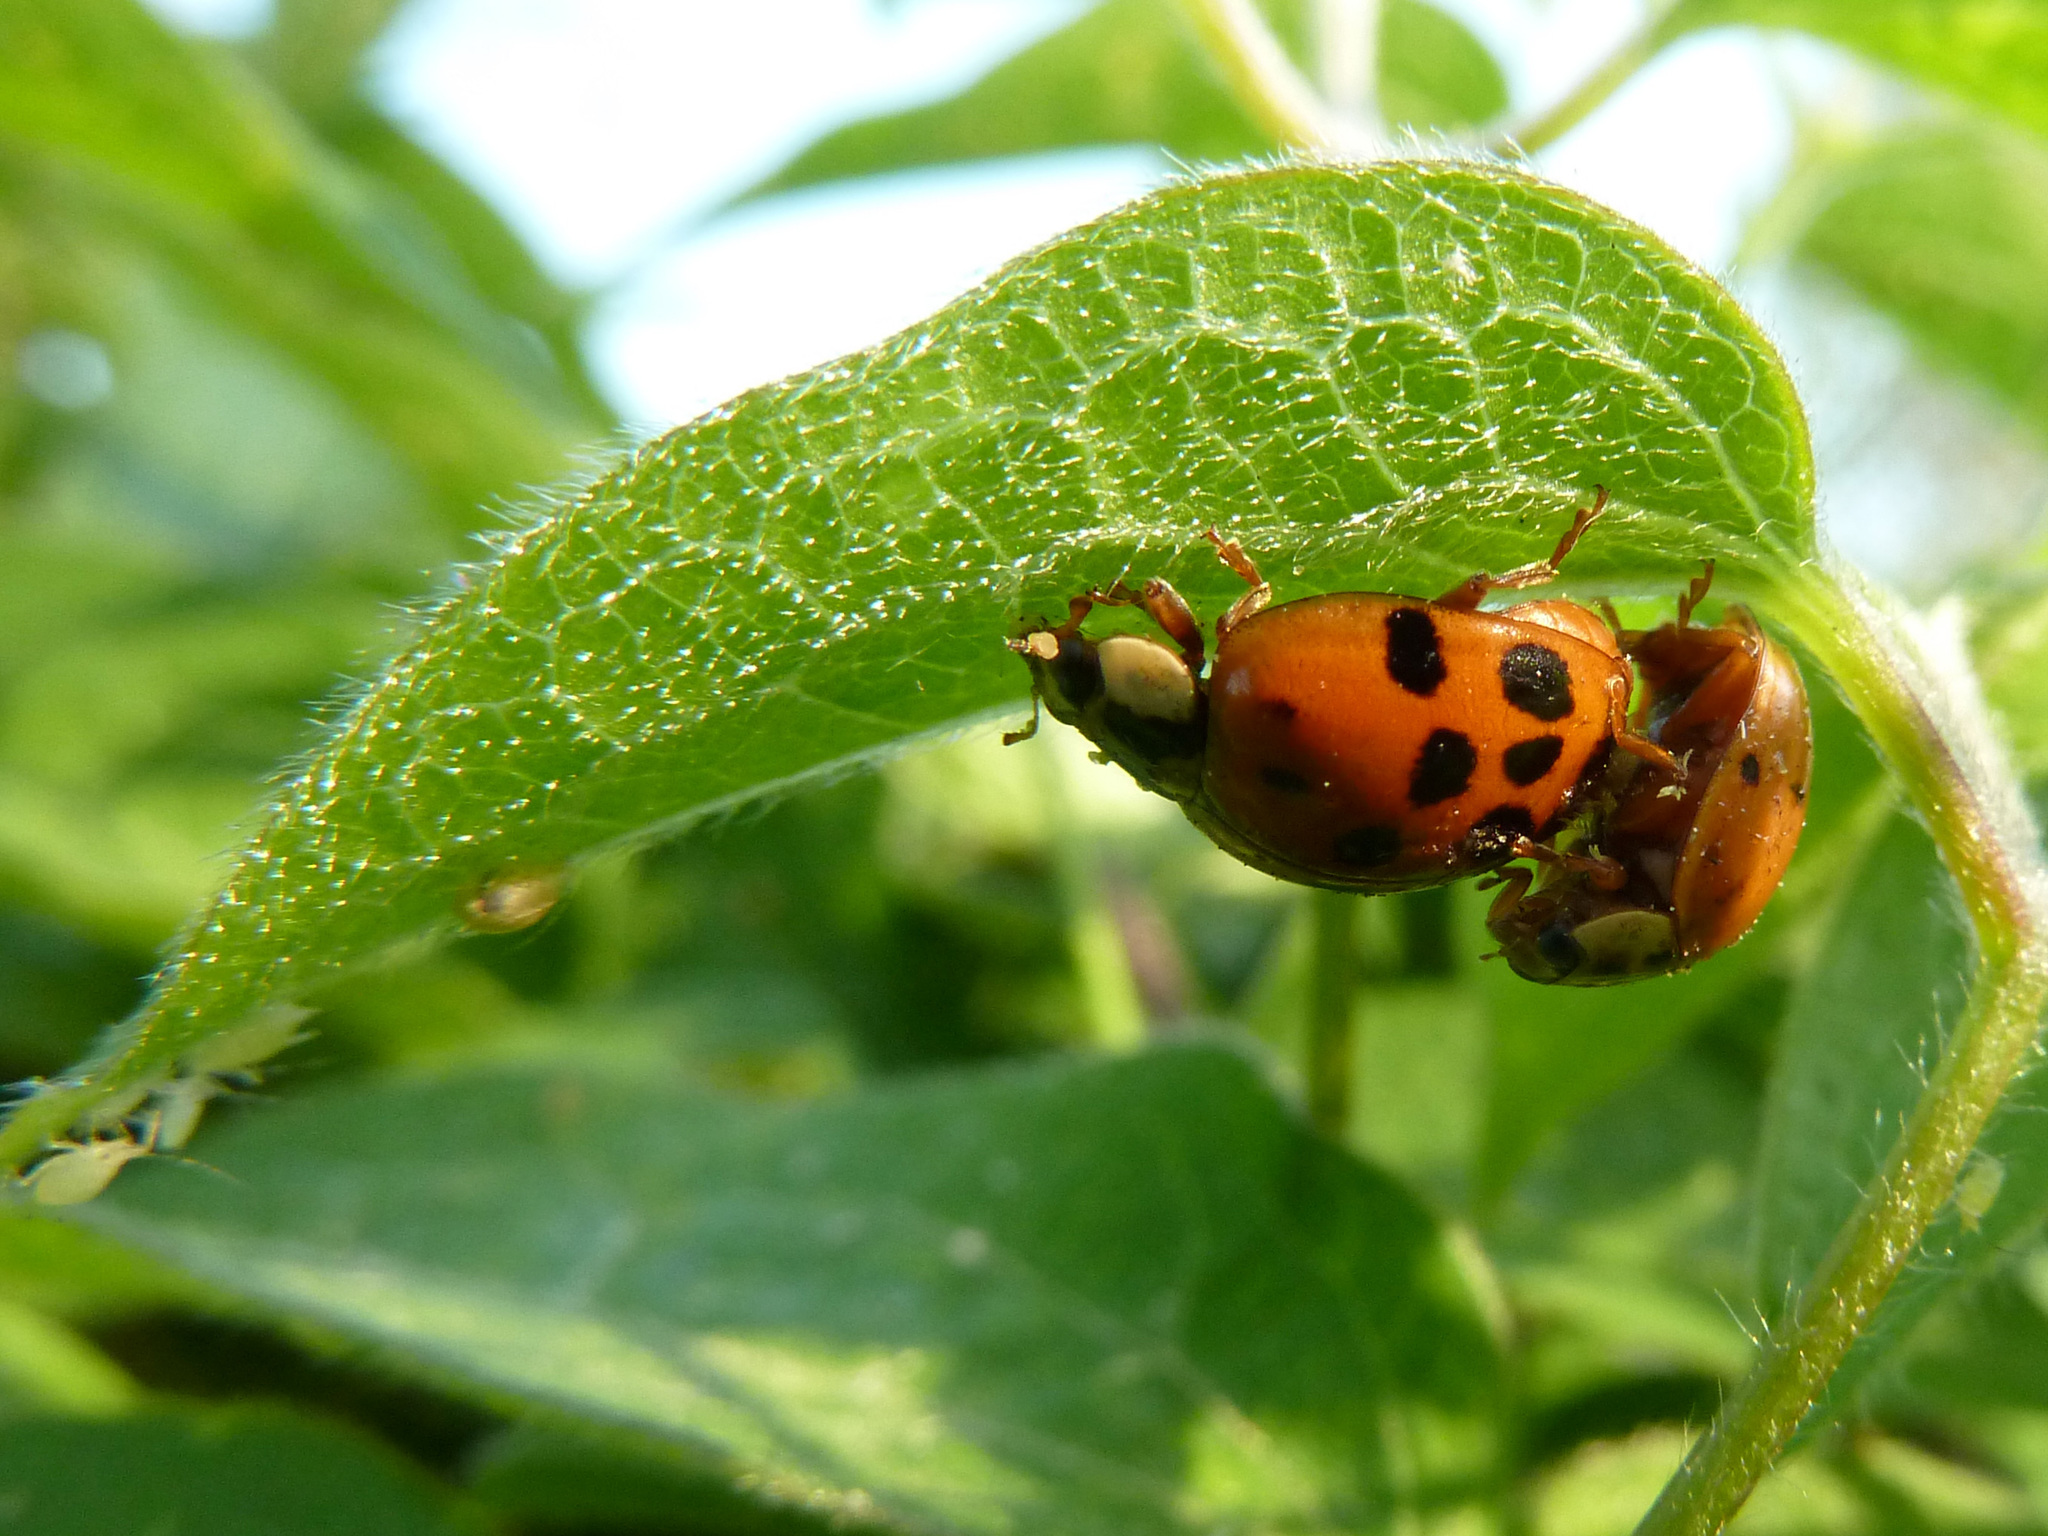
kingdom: Animalia
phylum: Arthropoda
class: Insecta
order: Coleoptera
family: Coccinellidae
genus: Harmonia
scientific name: Harmonia axyridis
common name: Harlequin ladybird
